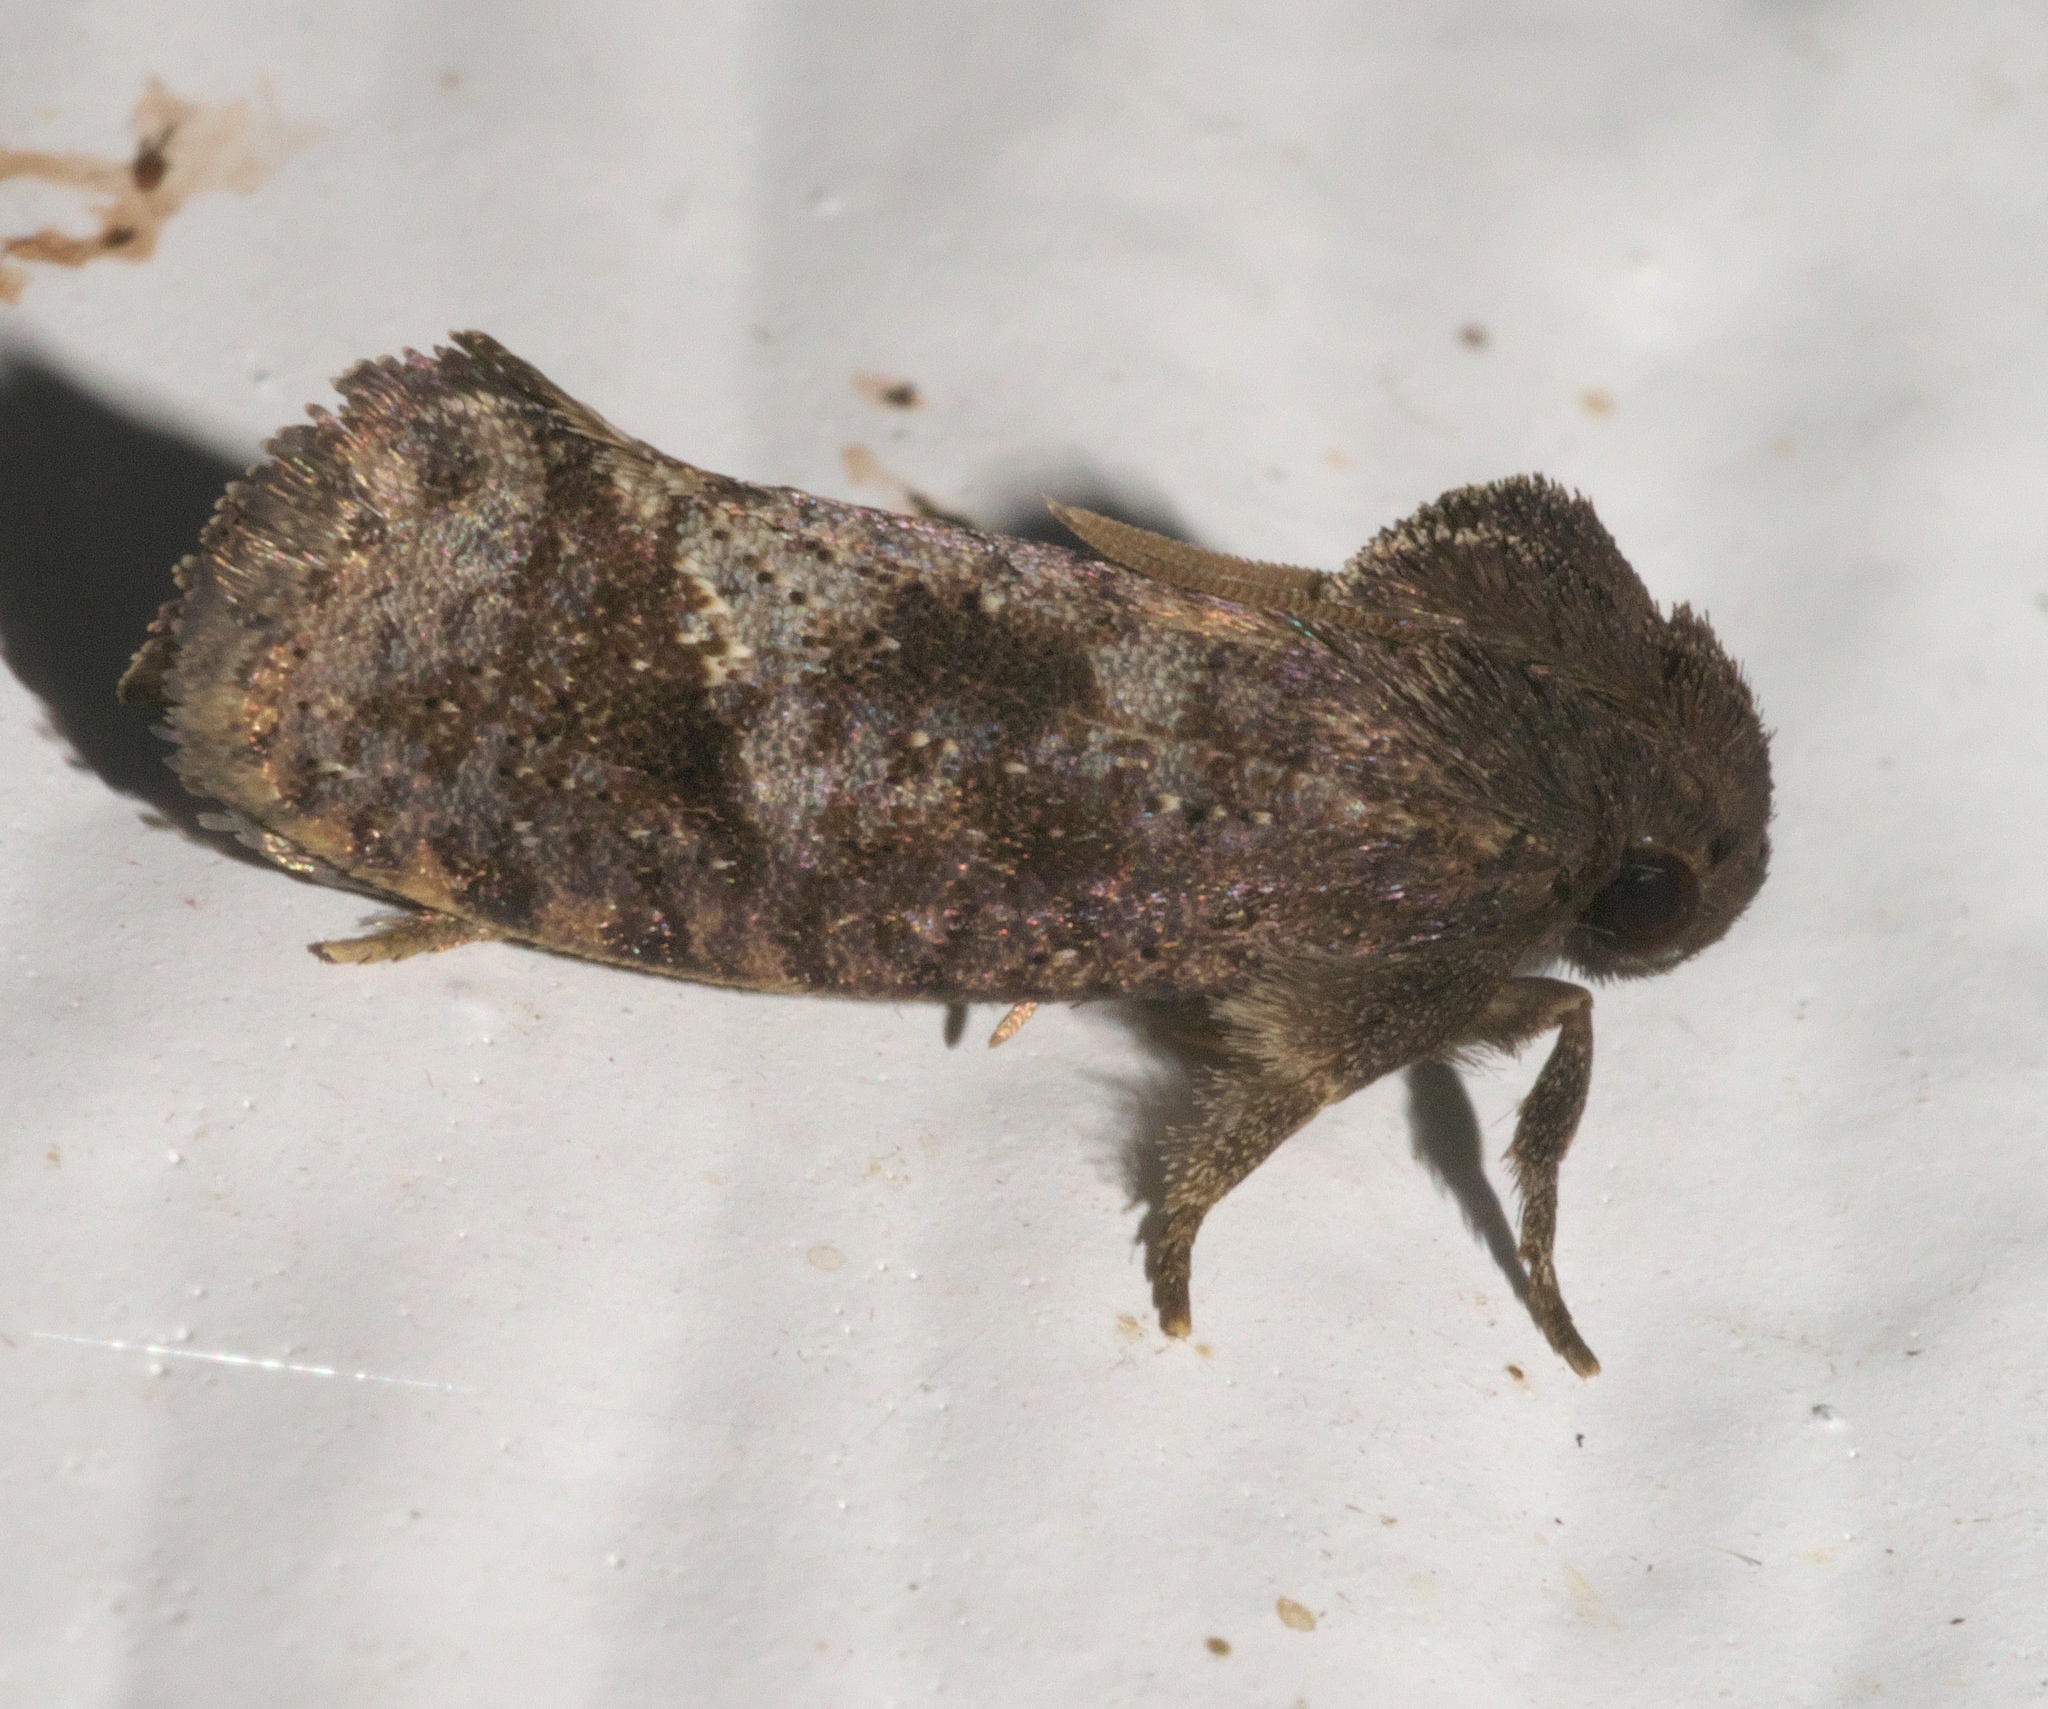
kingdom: Animalia
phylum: Arthropoda
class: Insecta
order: Lepidoptera
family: Tineidae
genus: Acrolophus
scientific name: Acrolophus texanella
